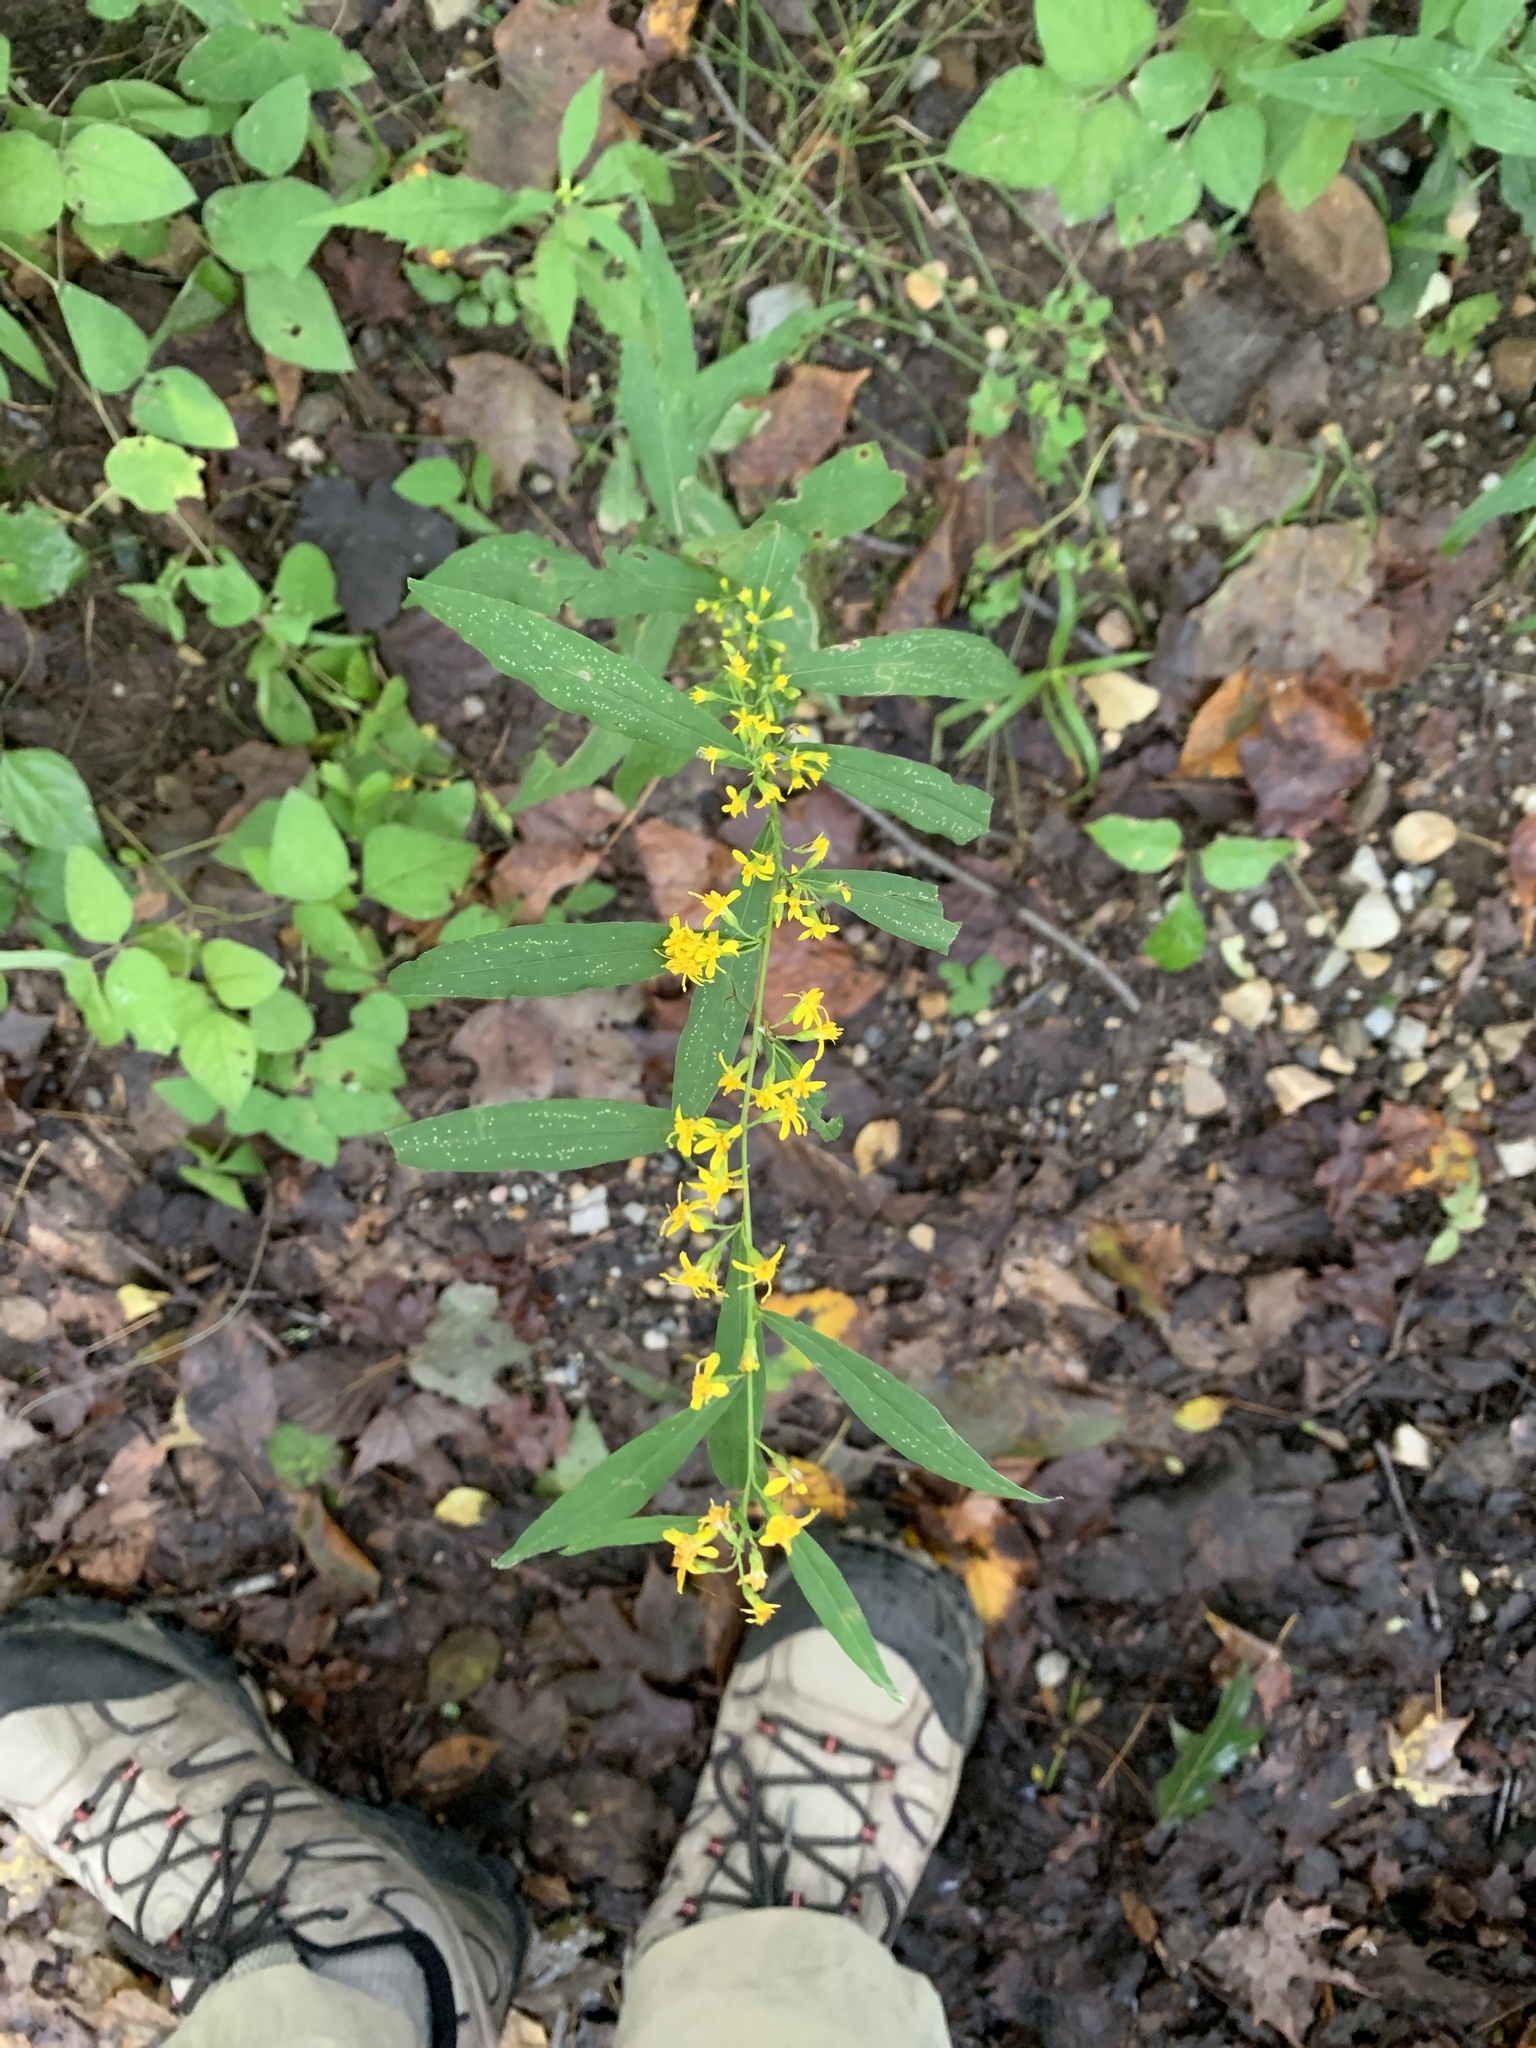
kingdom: Plantae
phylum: Tracheophyta
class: Magnoliopsida
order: Asterales
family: Asteraceae
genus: Solidago
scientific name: Solidago caesia
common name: Woodland goldenrod
